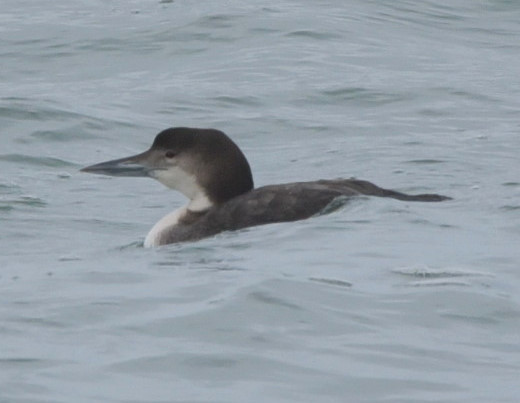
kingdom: Animalia
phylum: Chordata
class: Aves
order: Gaviiformes
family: Gaviidae
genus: Gavia
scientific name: Gavia immer
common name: Common loon
